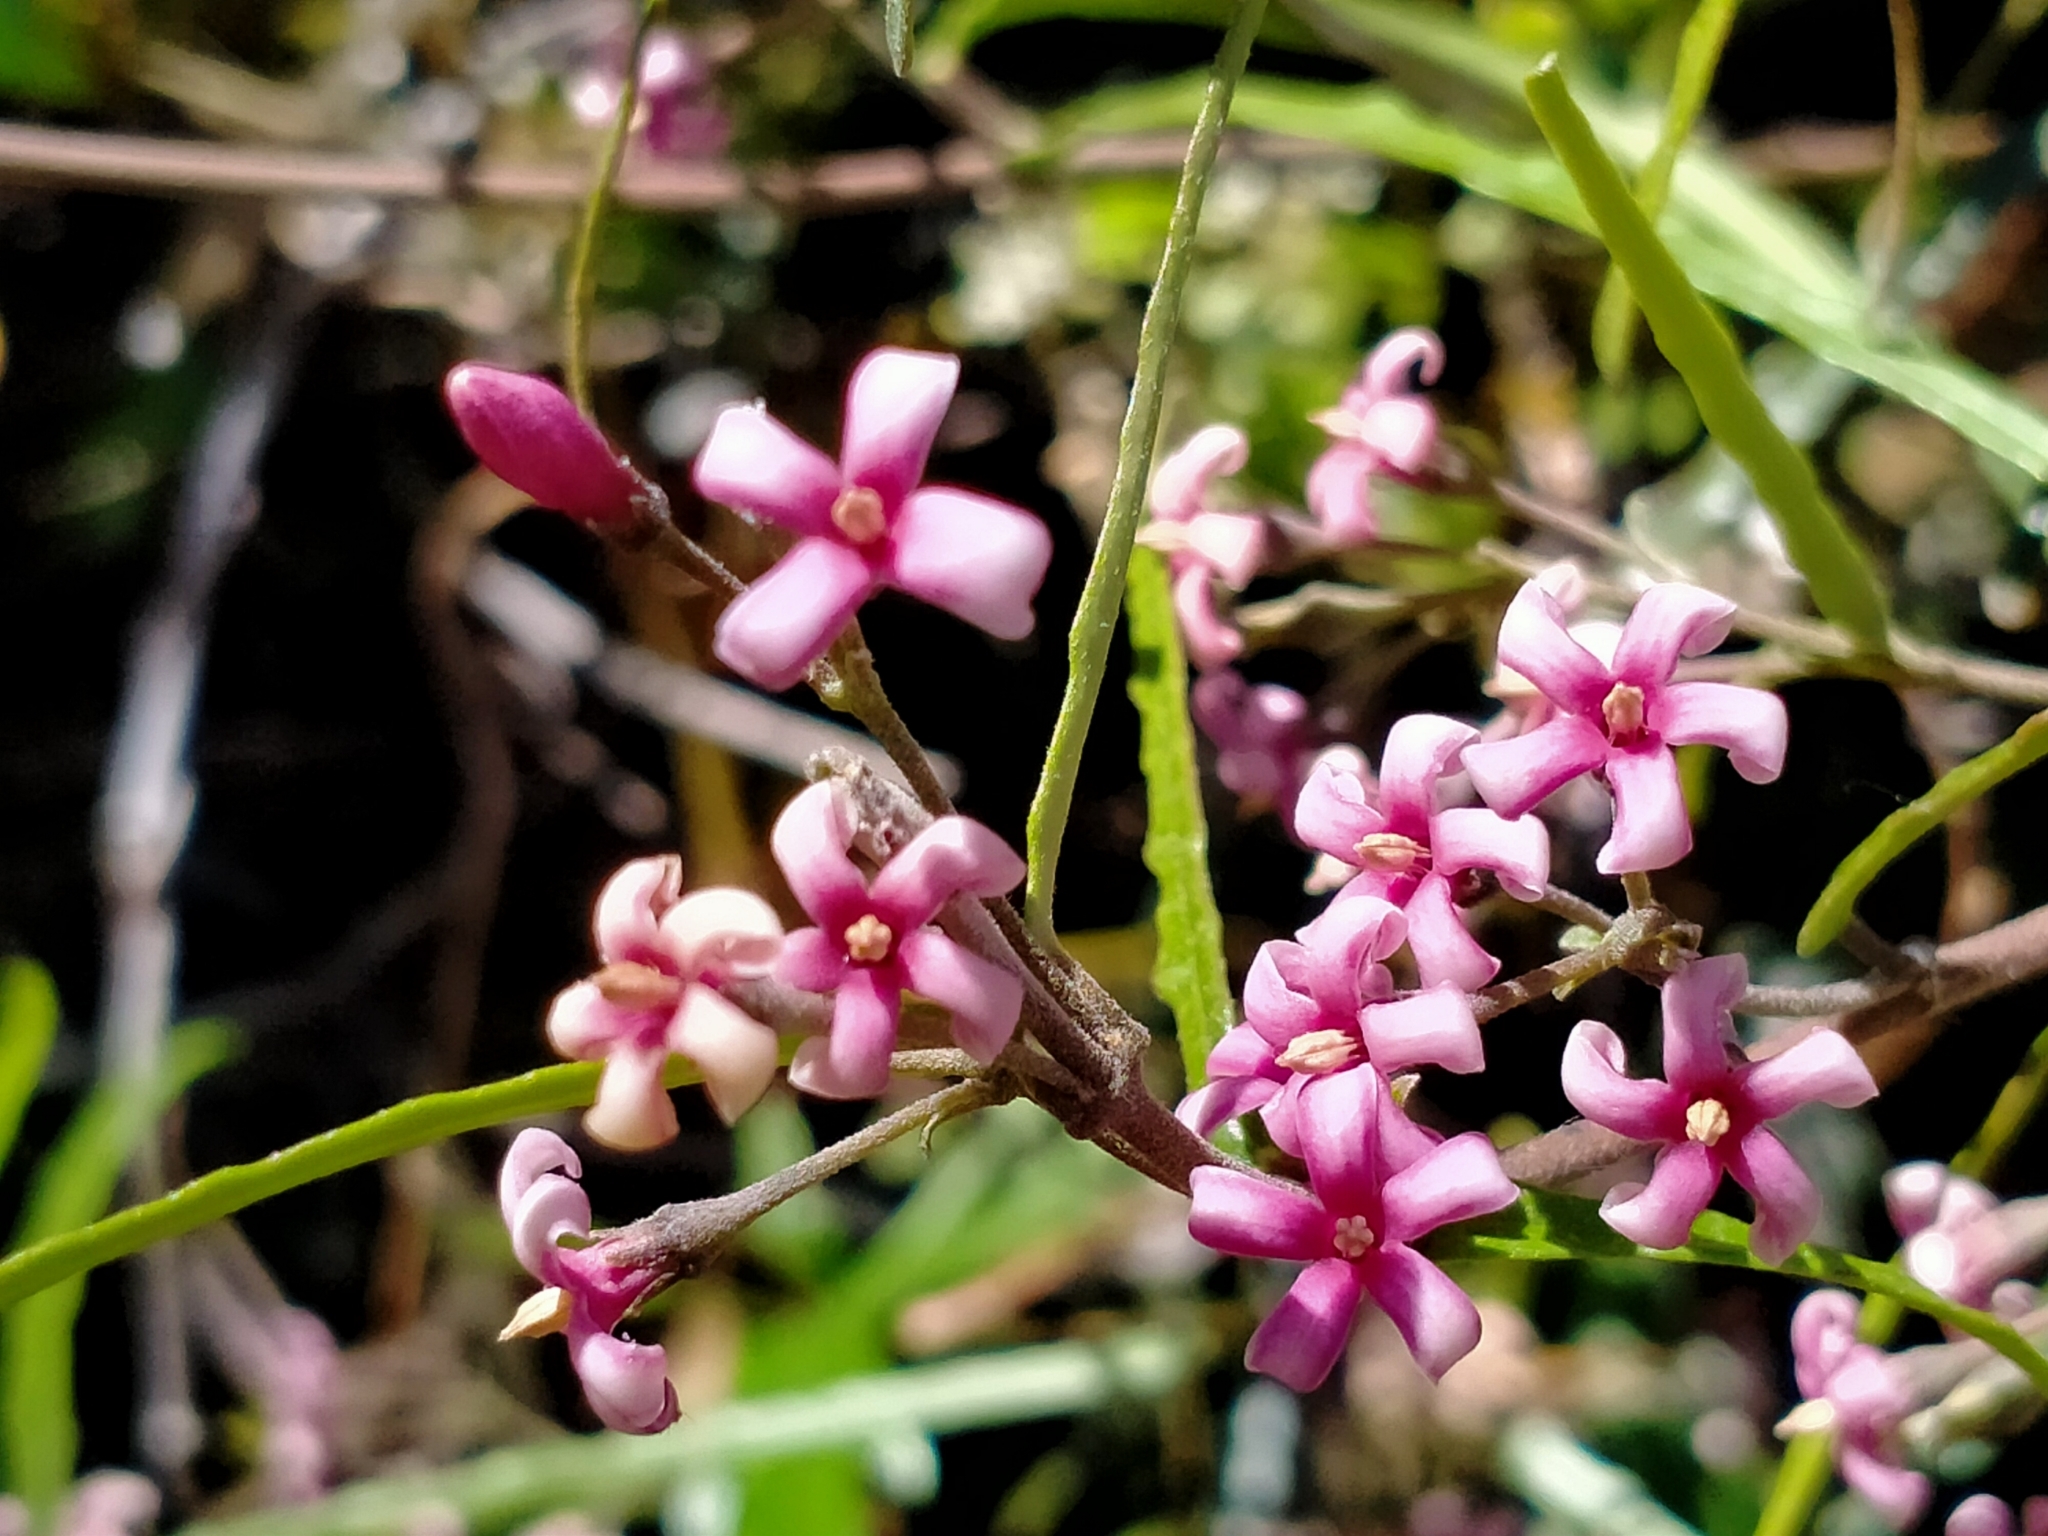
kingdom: Plantae
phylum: Tracheophyta
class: Magnoliopsida
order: Gentianales
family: Apocynaceae
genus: Parsonsia
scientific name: Parsonsia capsularis
